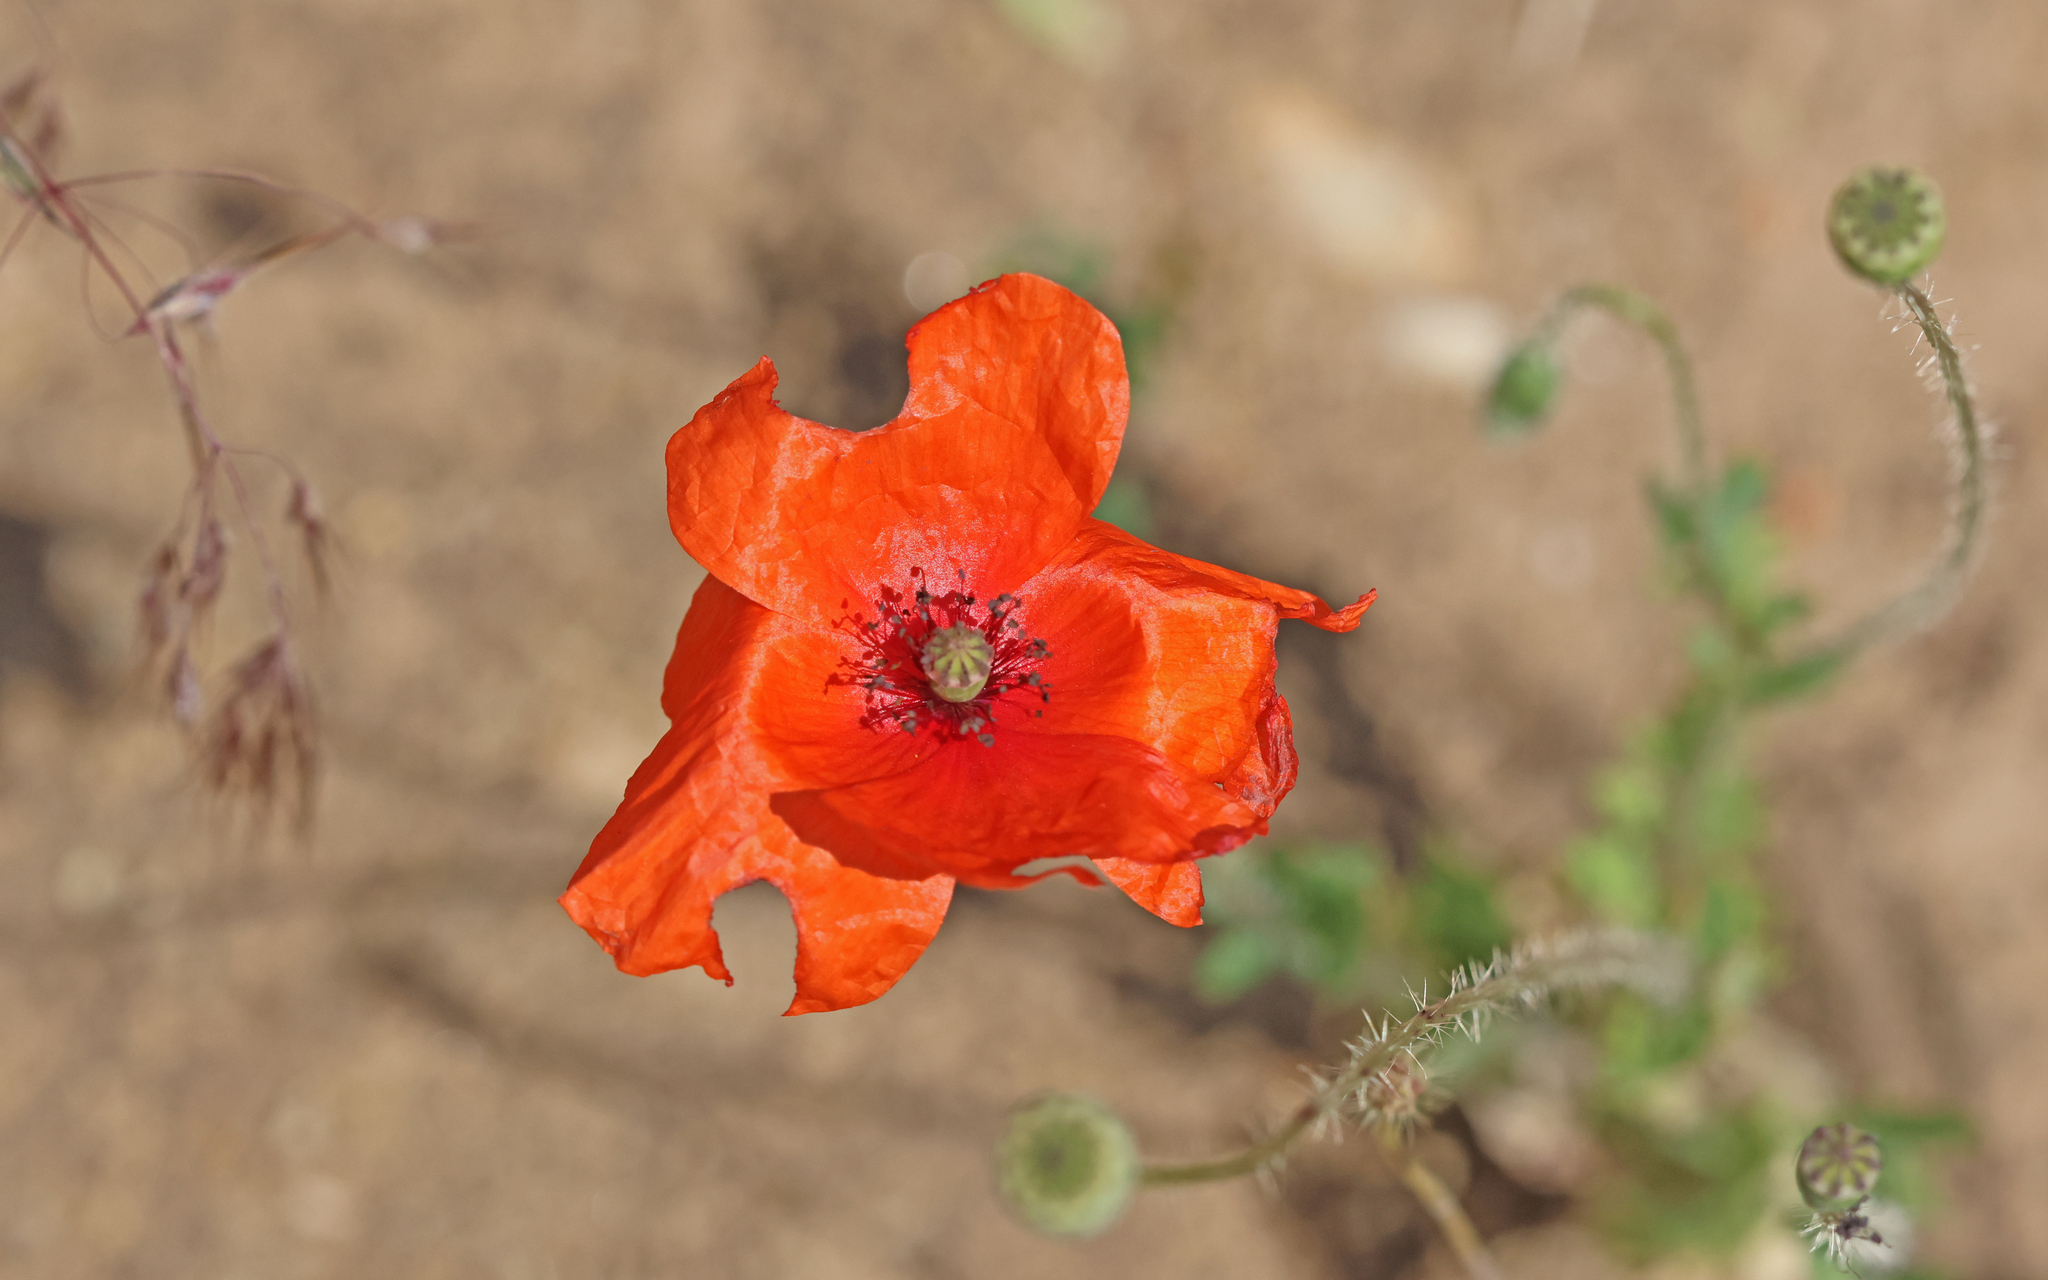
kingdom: Animalia
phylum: Arthropoda
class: Insecta
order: Hymenoptera
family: Megachilidae
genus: Hoplitis
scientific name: Hoplitis papaveris
